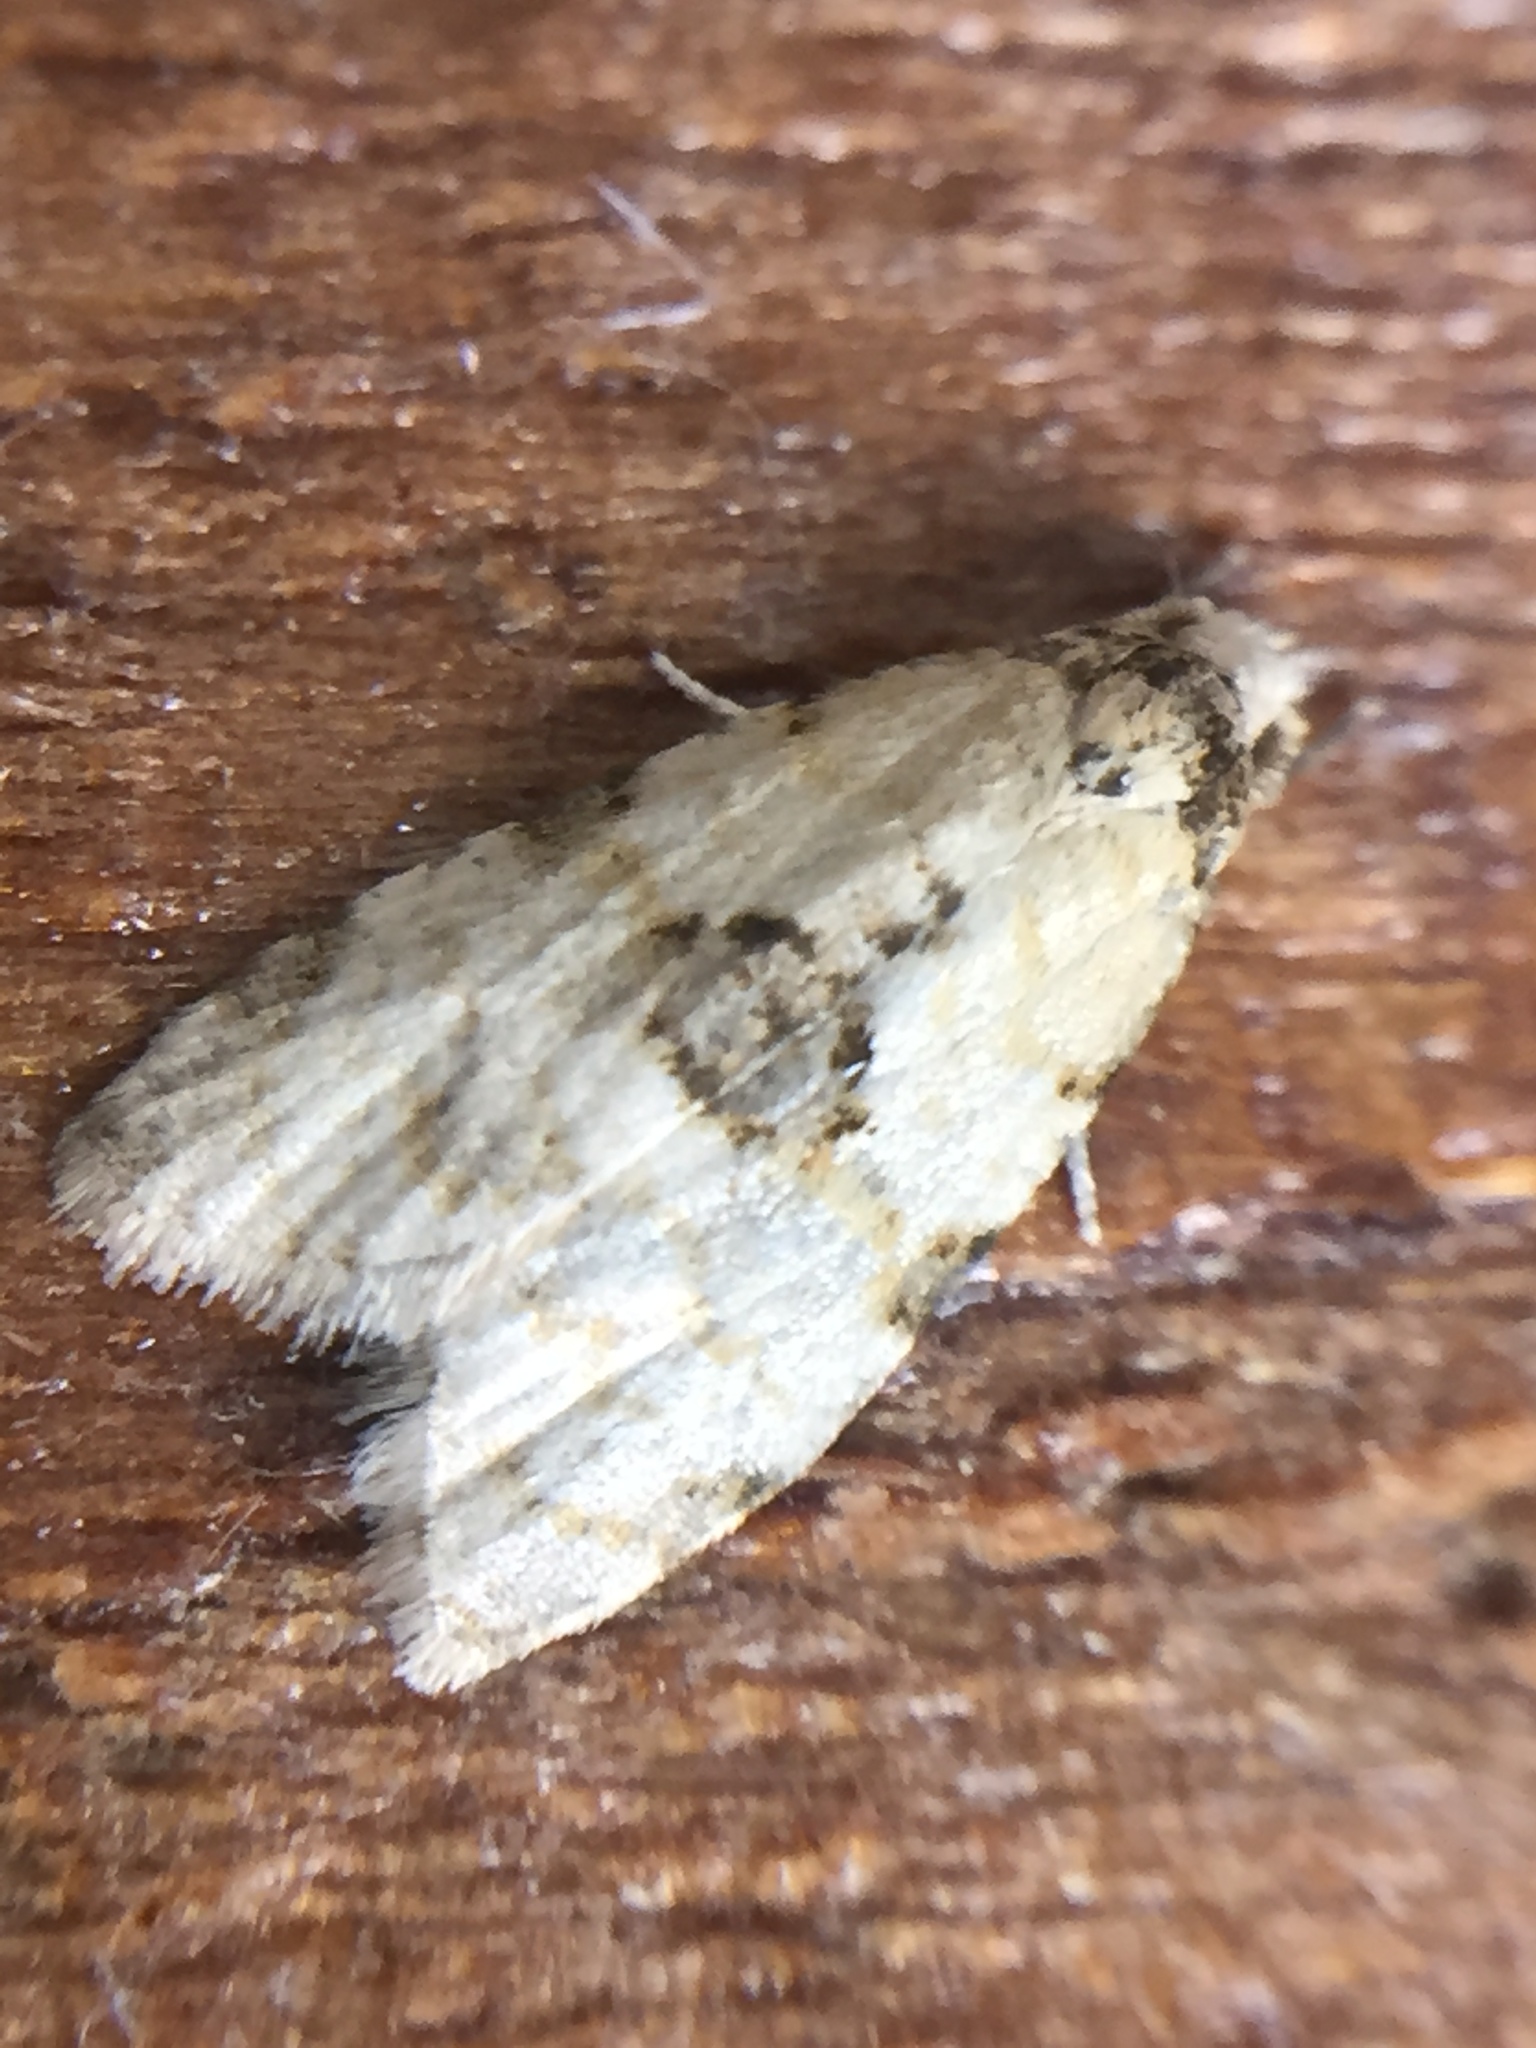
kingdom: Animalia
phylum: Arthropoda
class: Insecta
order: Lepidoptera
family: Tortricidae
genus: Dipterina
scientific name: Dipterina imbriferana
